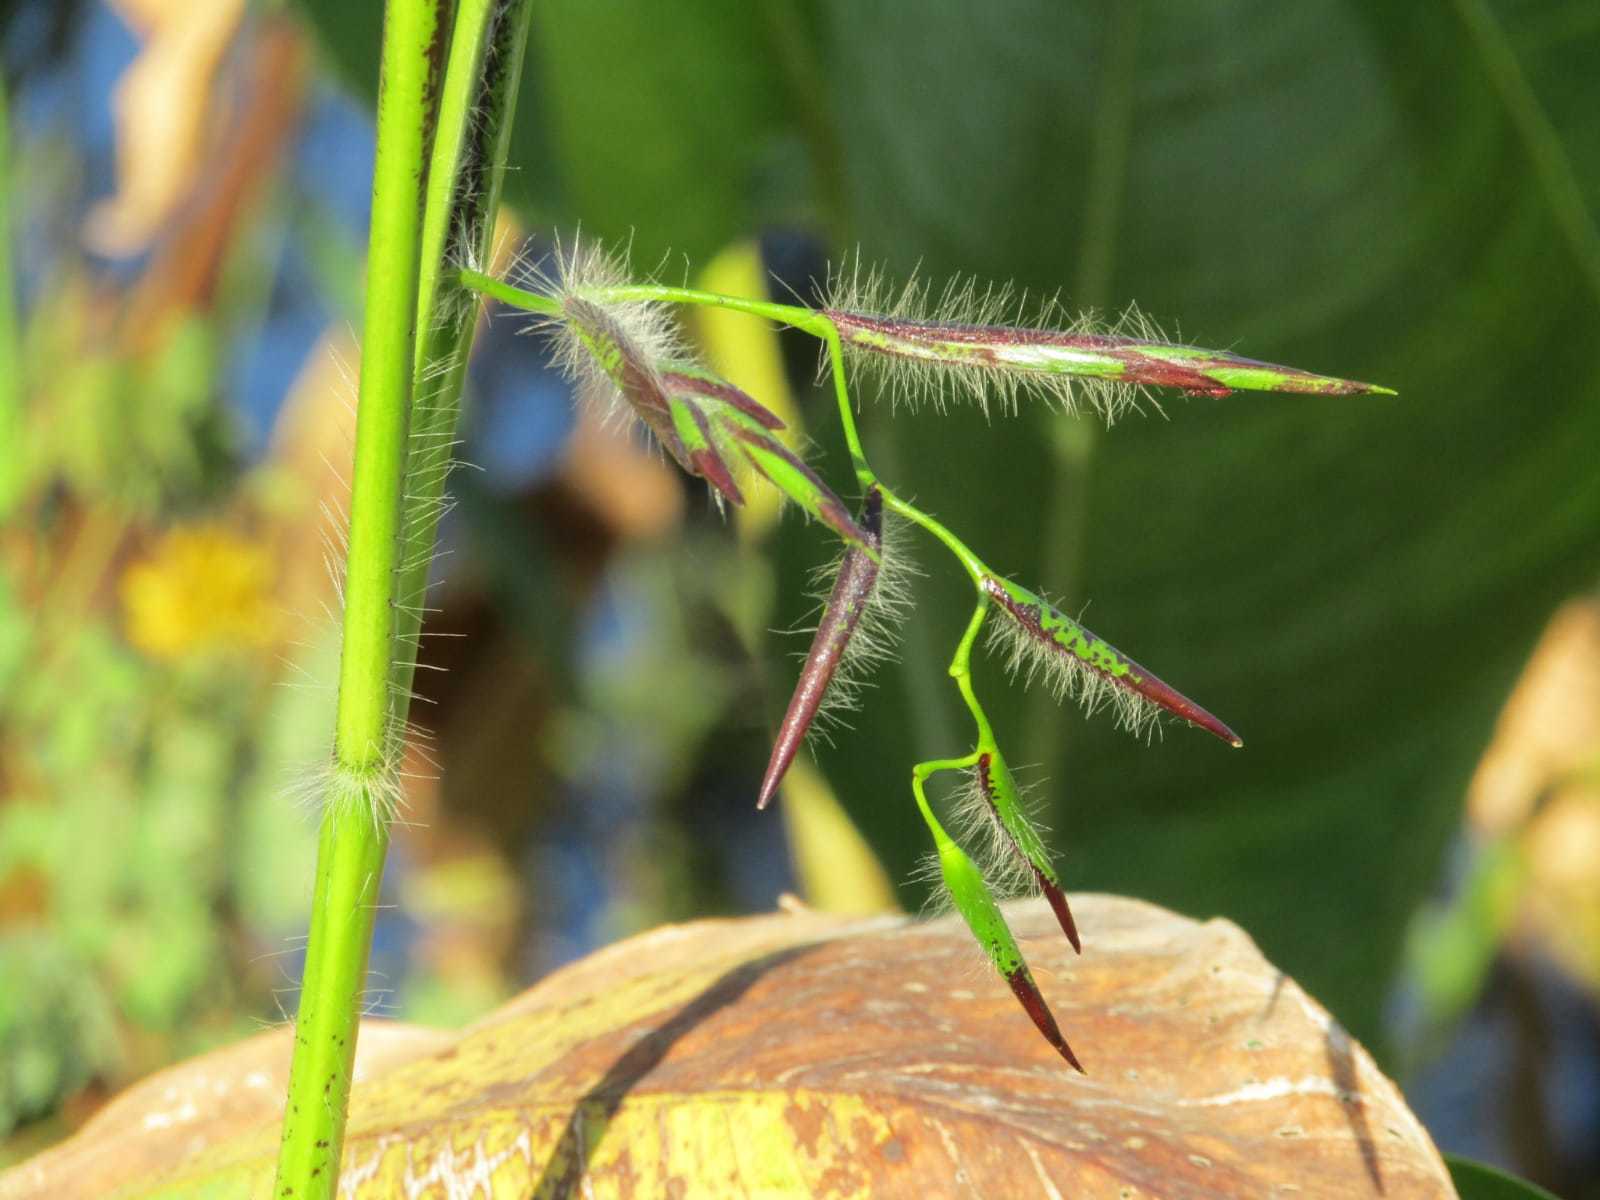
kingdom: Plantae
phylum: Tracheophyta
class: Liliopsida
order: Zingiberales
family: Marantaceae
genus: Thalia
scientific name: Thalia geniculata
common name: Arrowroot
